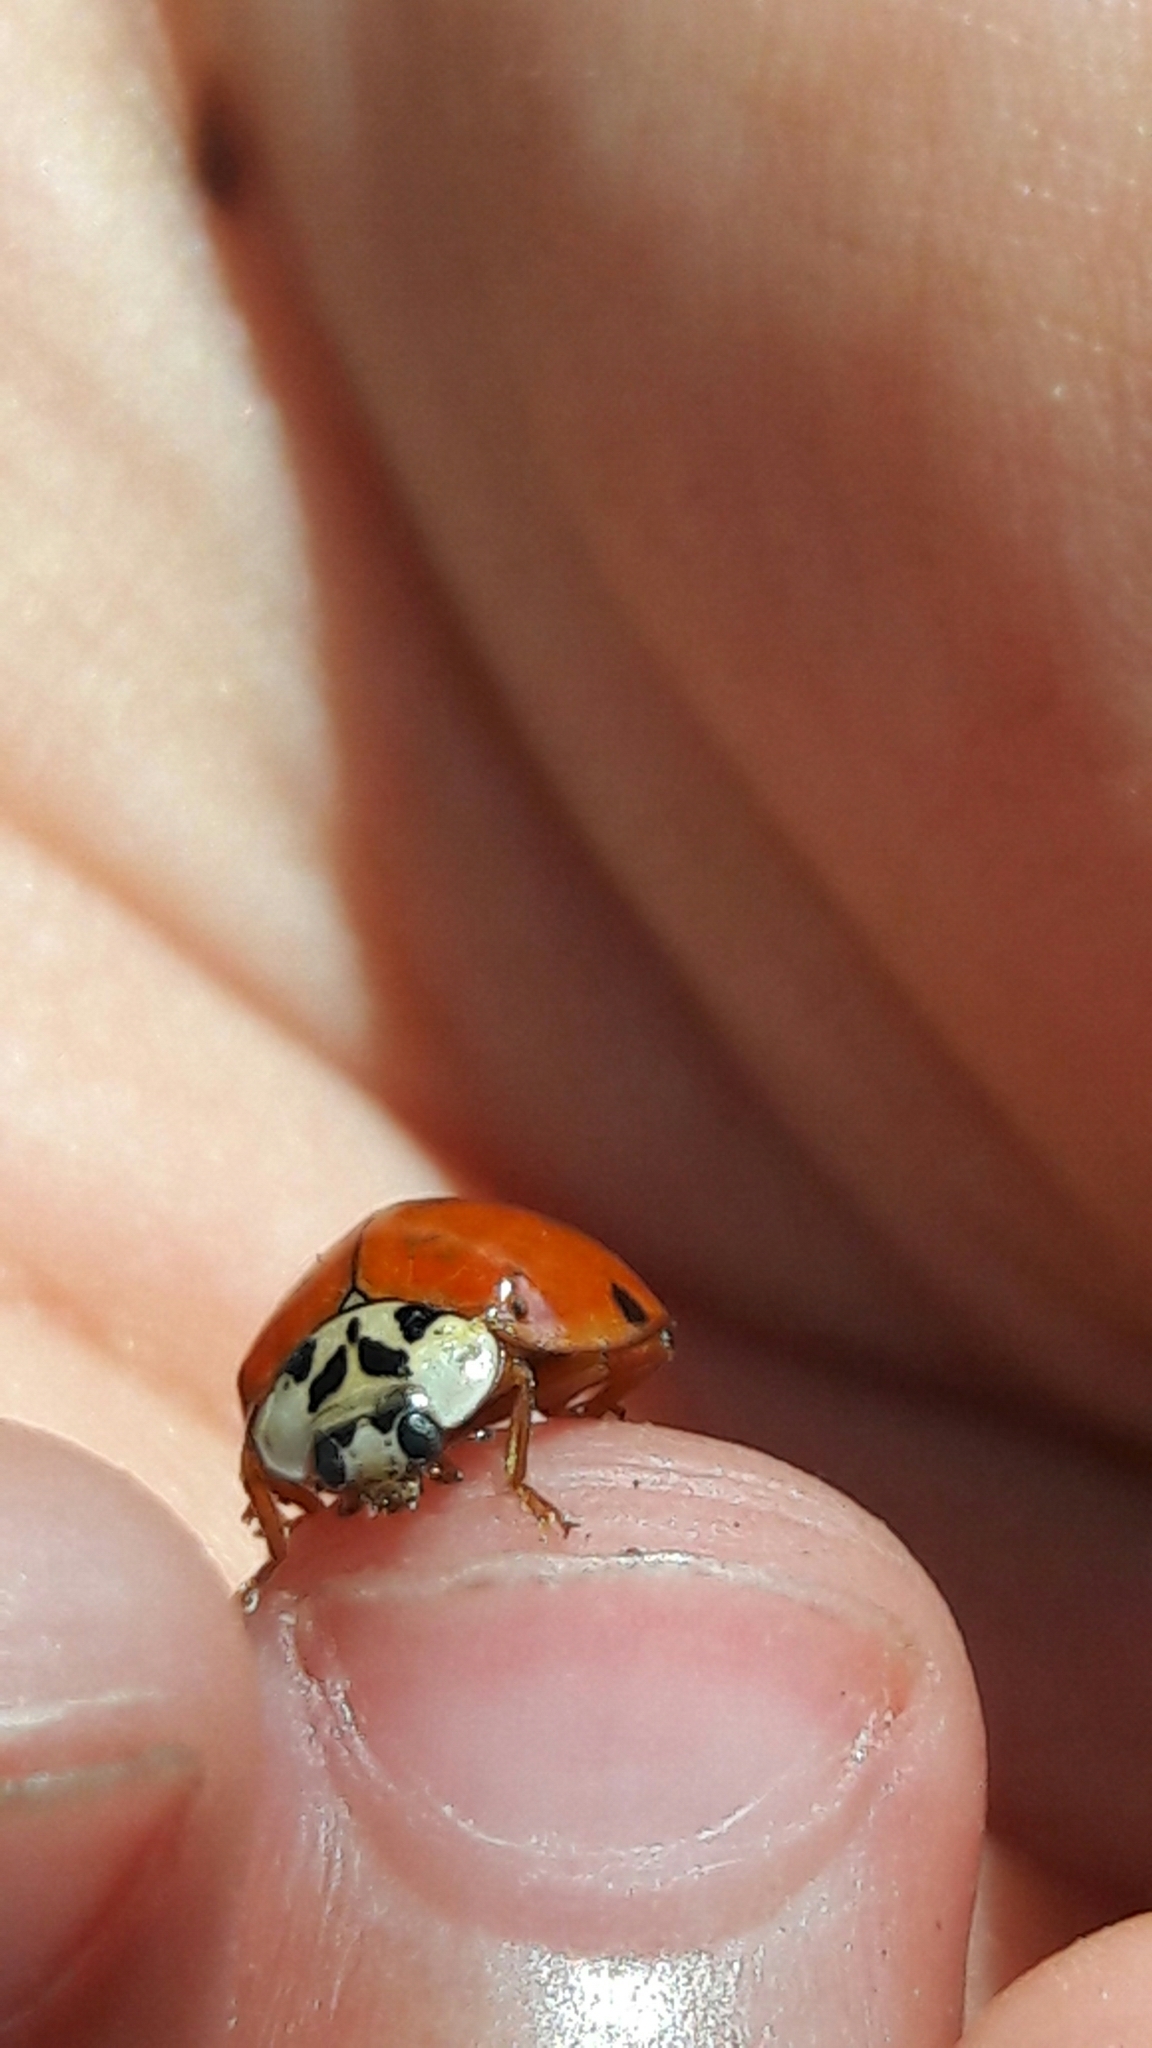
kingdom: Animalia
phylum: Arthropoda
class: Insecta
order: Coleoptera
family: Coccinellidae
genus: Harmonia
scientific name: Harmonia axyridis
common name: Harlequin ladybird
